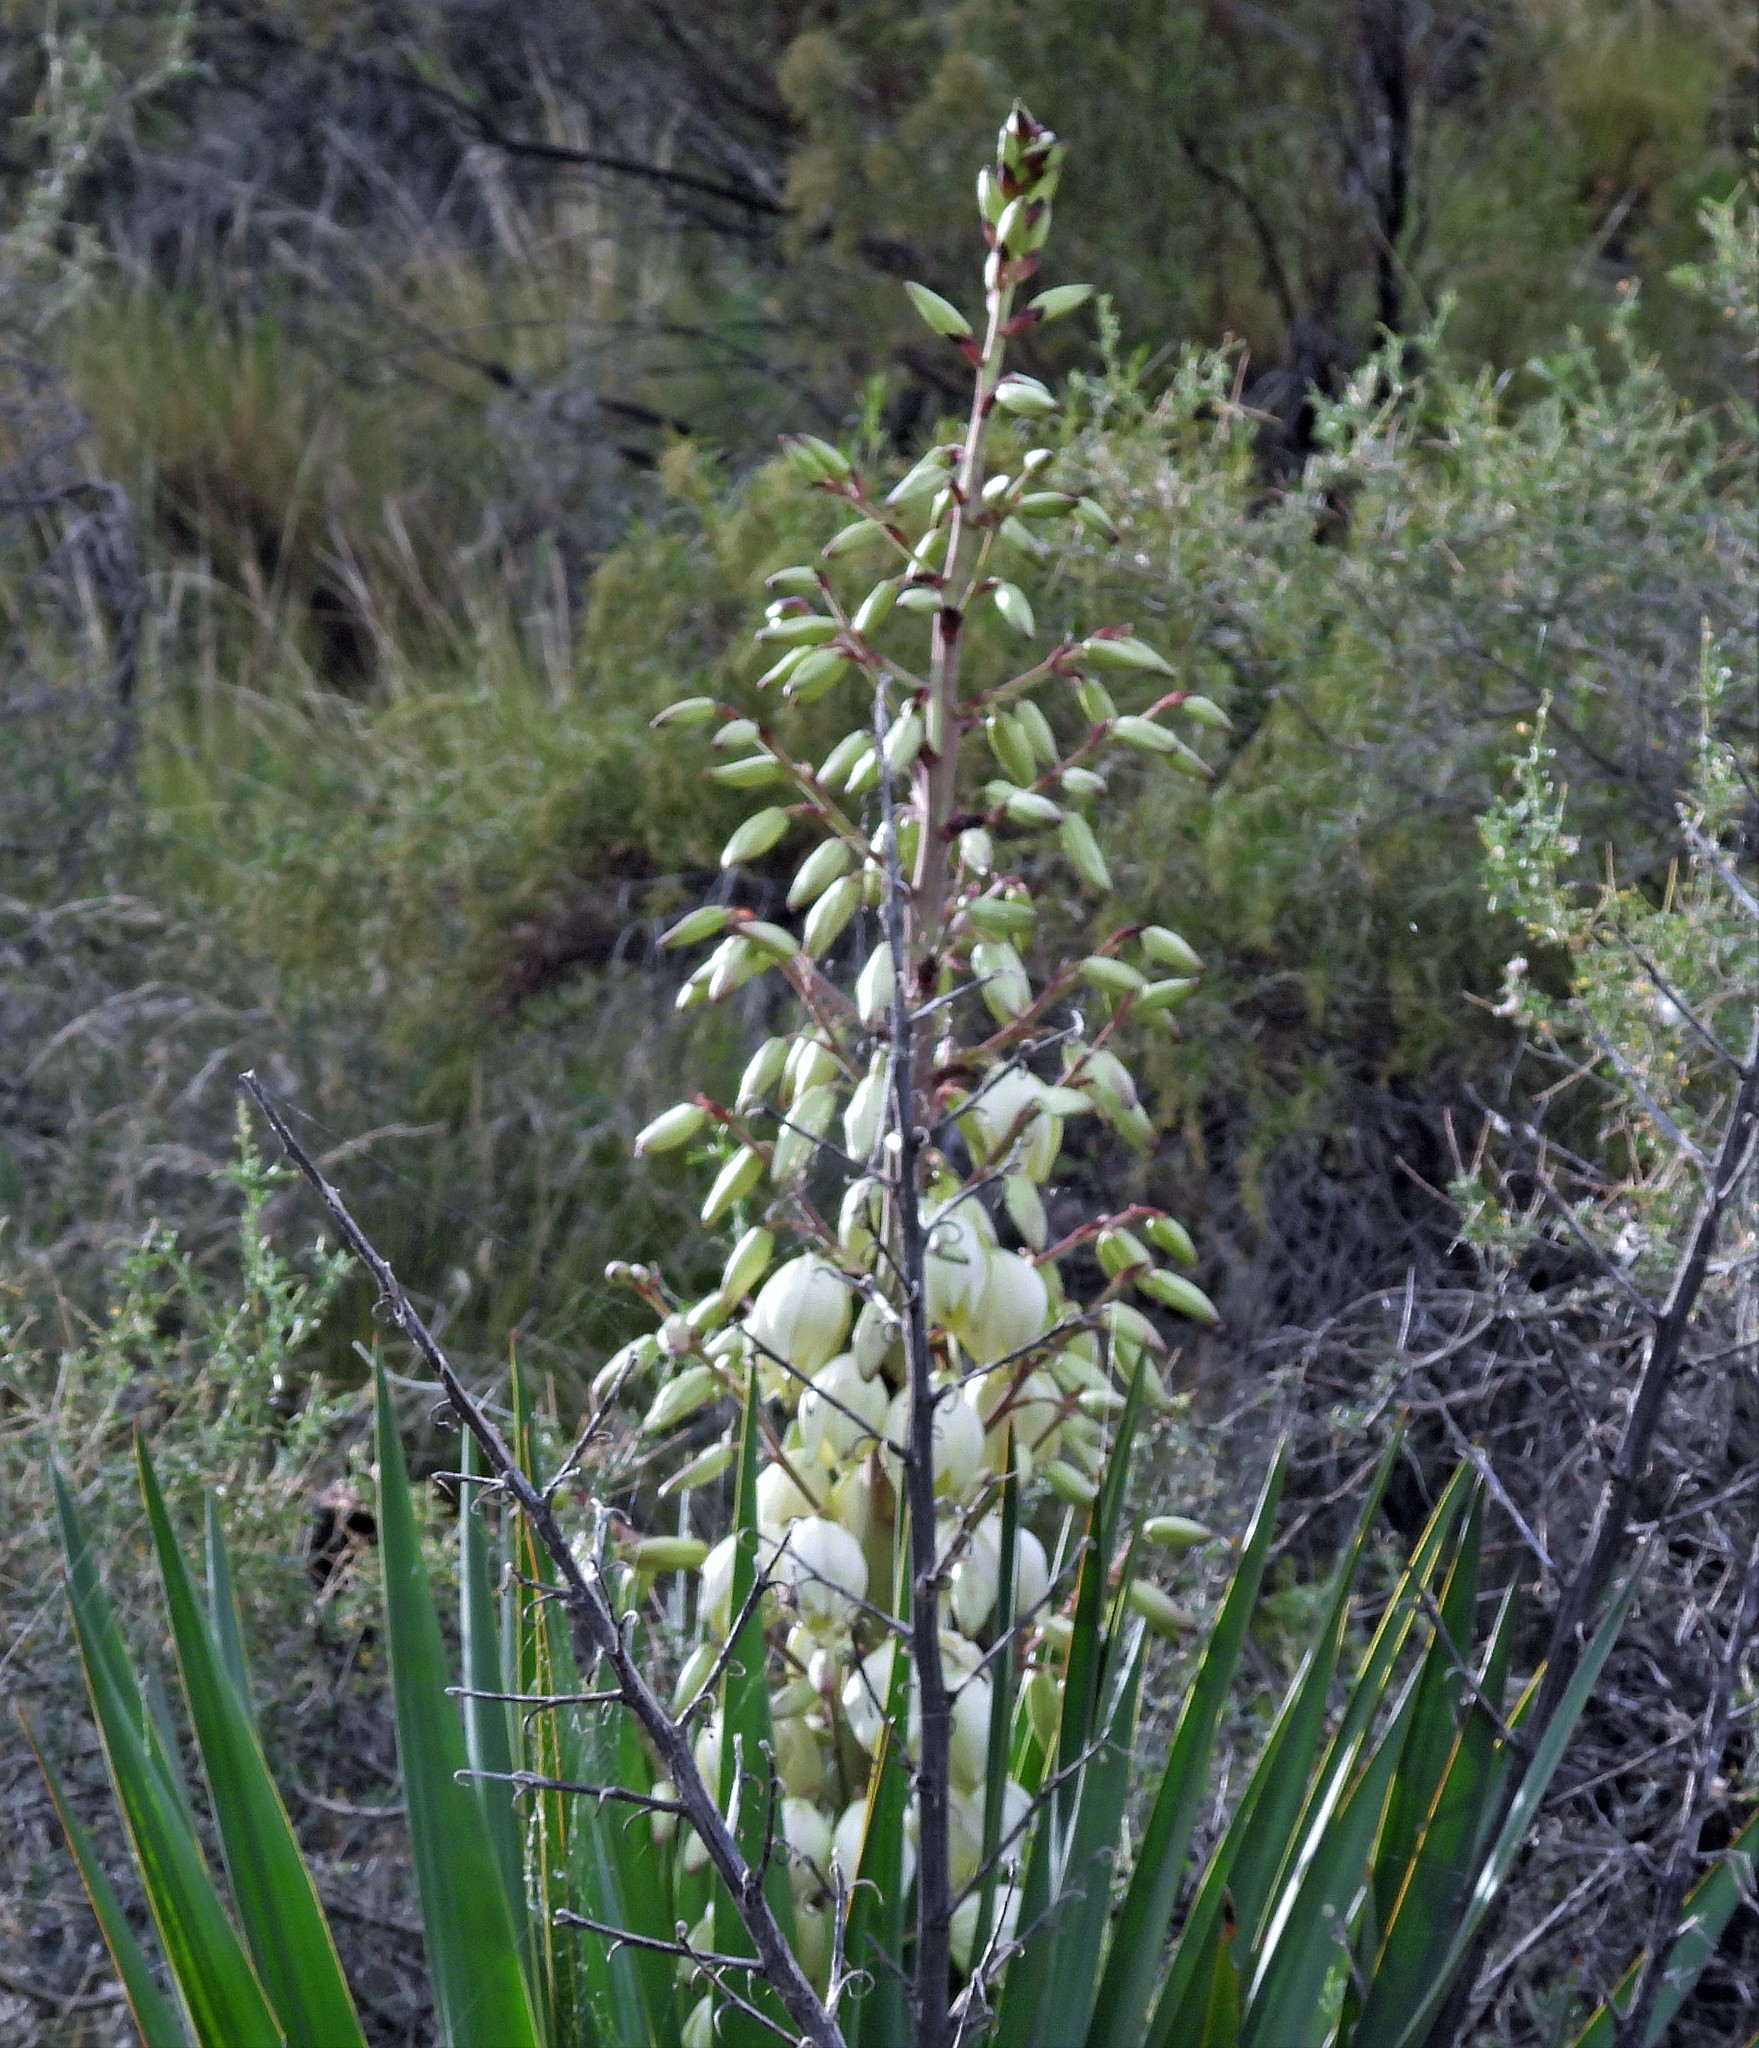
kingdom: Plantae
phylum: Tracheophyta
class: Liliopsida
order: Asparagales
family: Asparagaceae
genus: Yucca
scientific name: Yucca gloriosa
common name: Spanish-dagger
